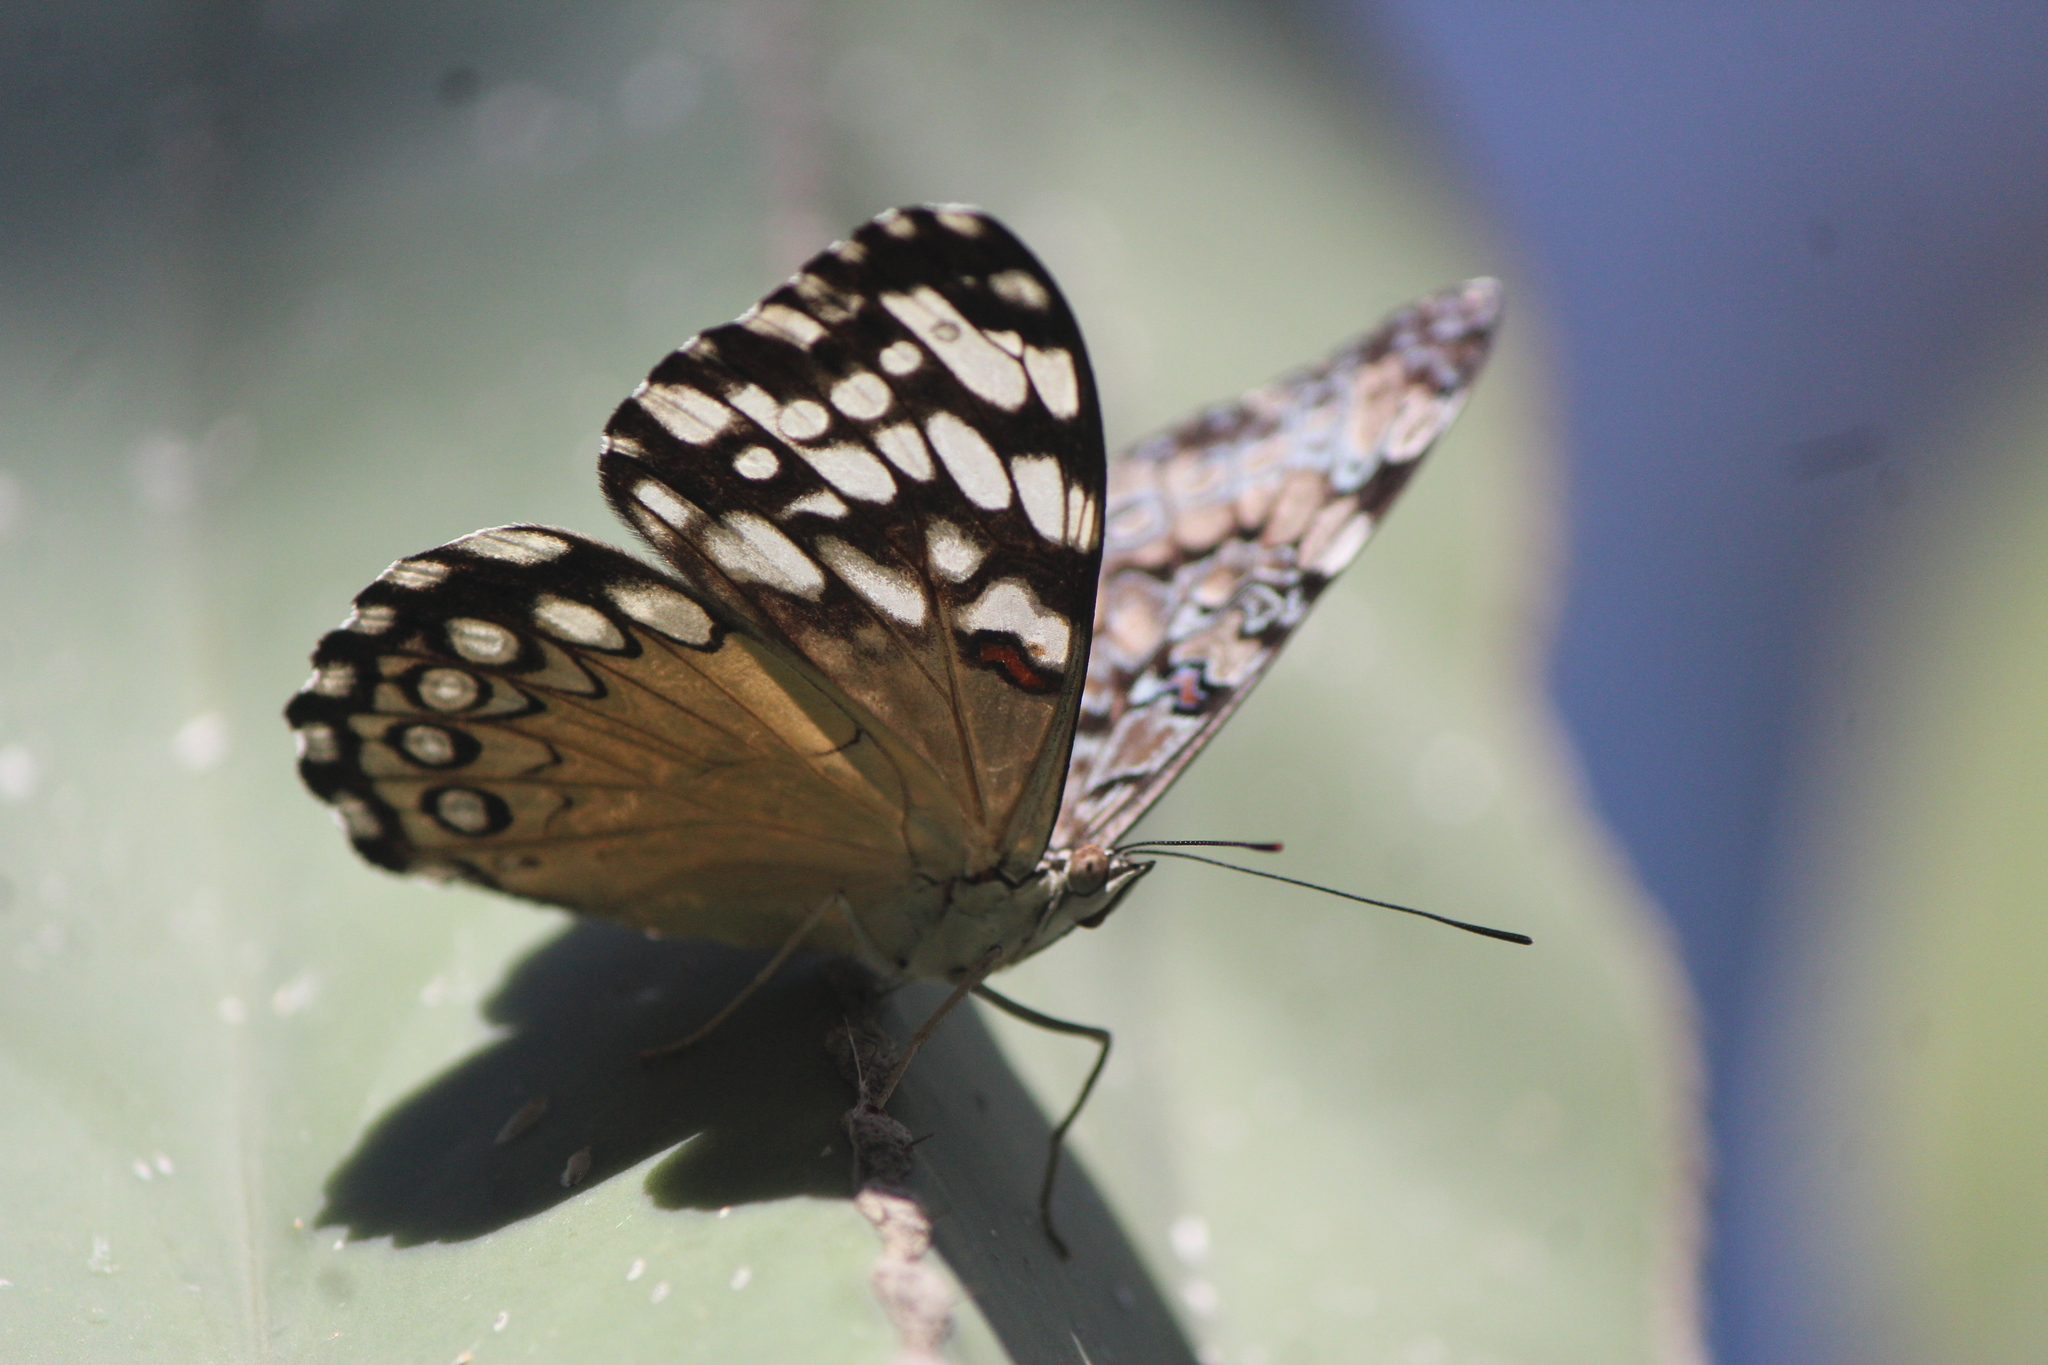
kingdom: Animalia
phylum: Arthropoda
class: Insecta
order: Lepidoptera
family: Nymphalidae
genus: Hamadryas
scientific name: Hamadryas guatemalena
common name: Guatemalan cracker
